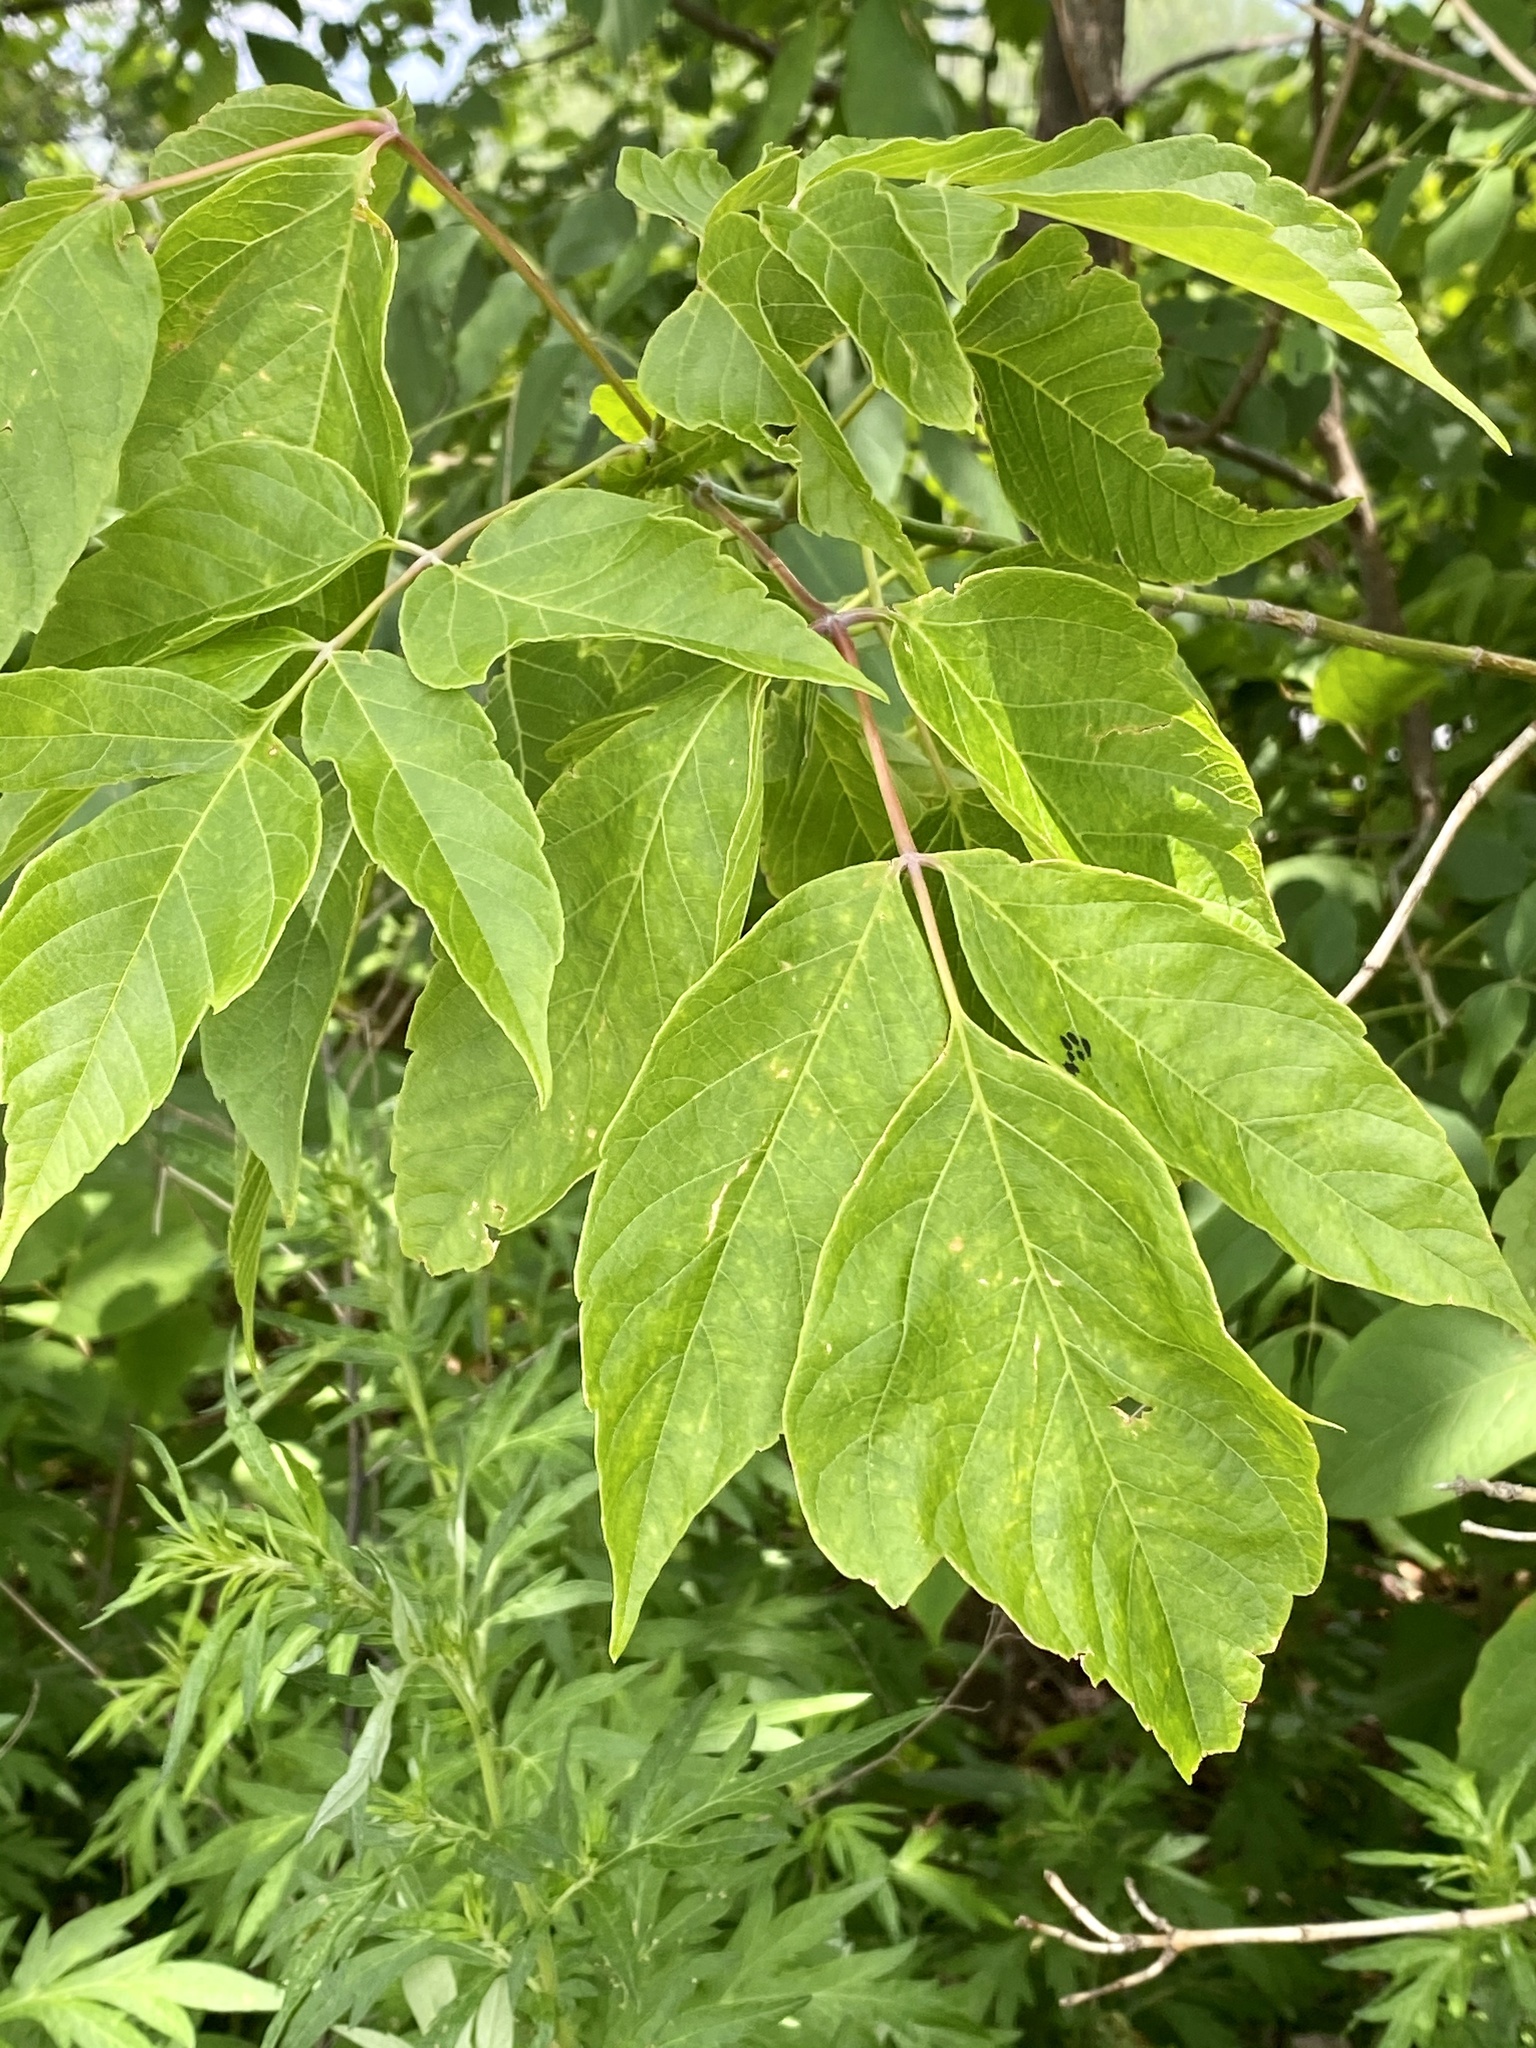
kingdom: Plantae
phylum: Tracheophyta
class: Magnoliopsida
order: Sapindales
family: Sapindaceae
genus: Acer
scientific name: Acer negundo
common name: Ashleaf maple
